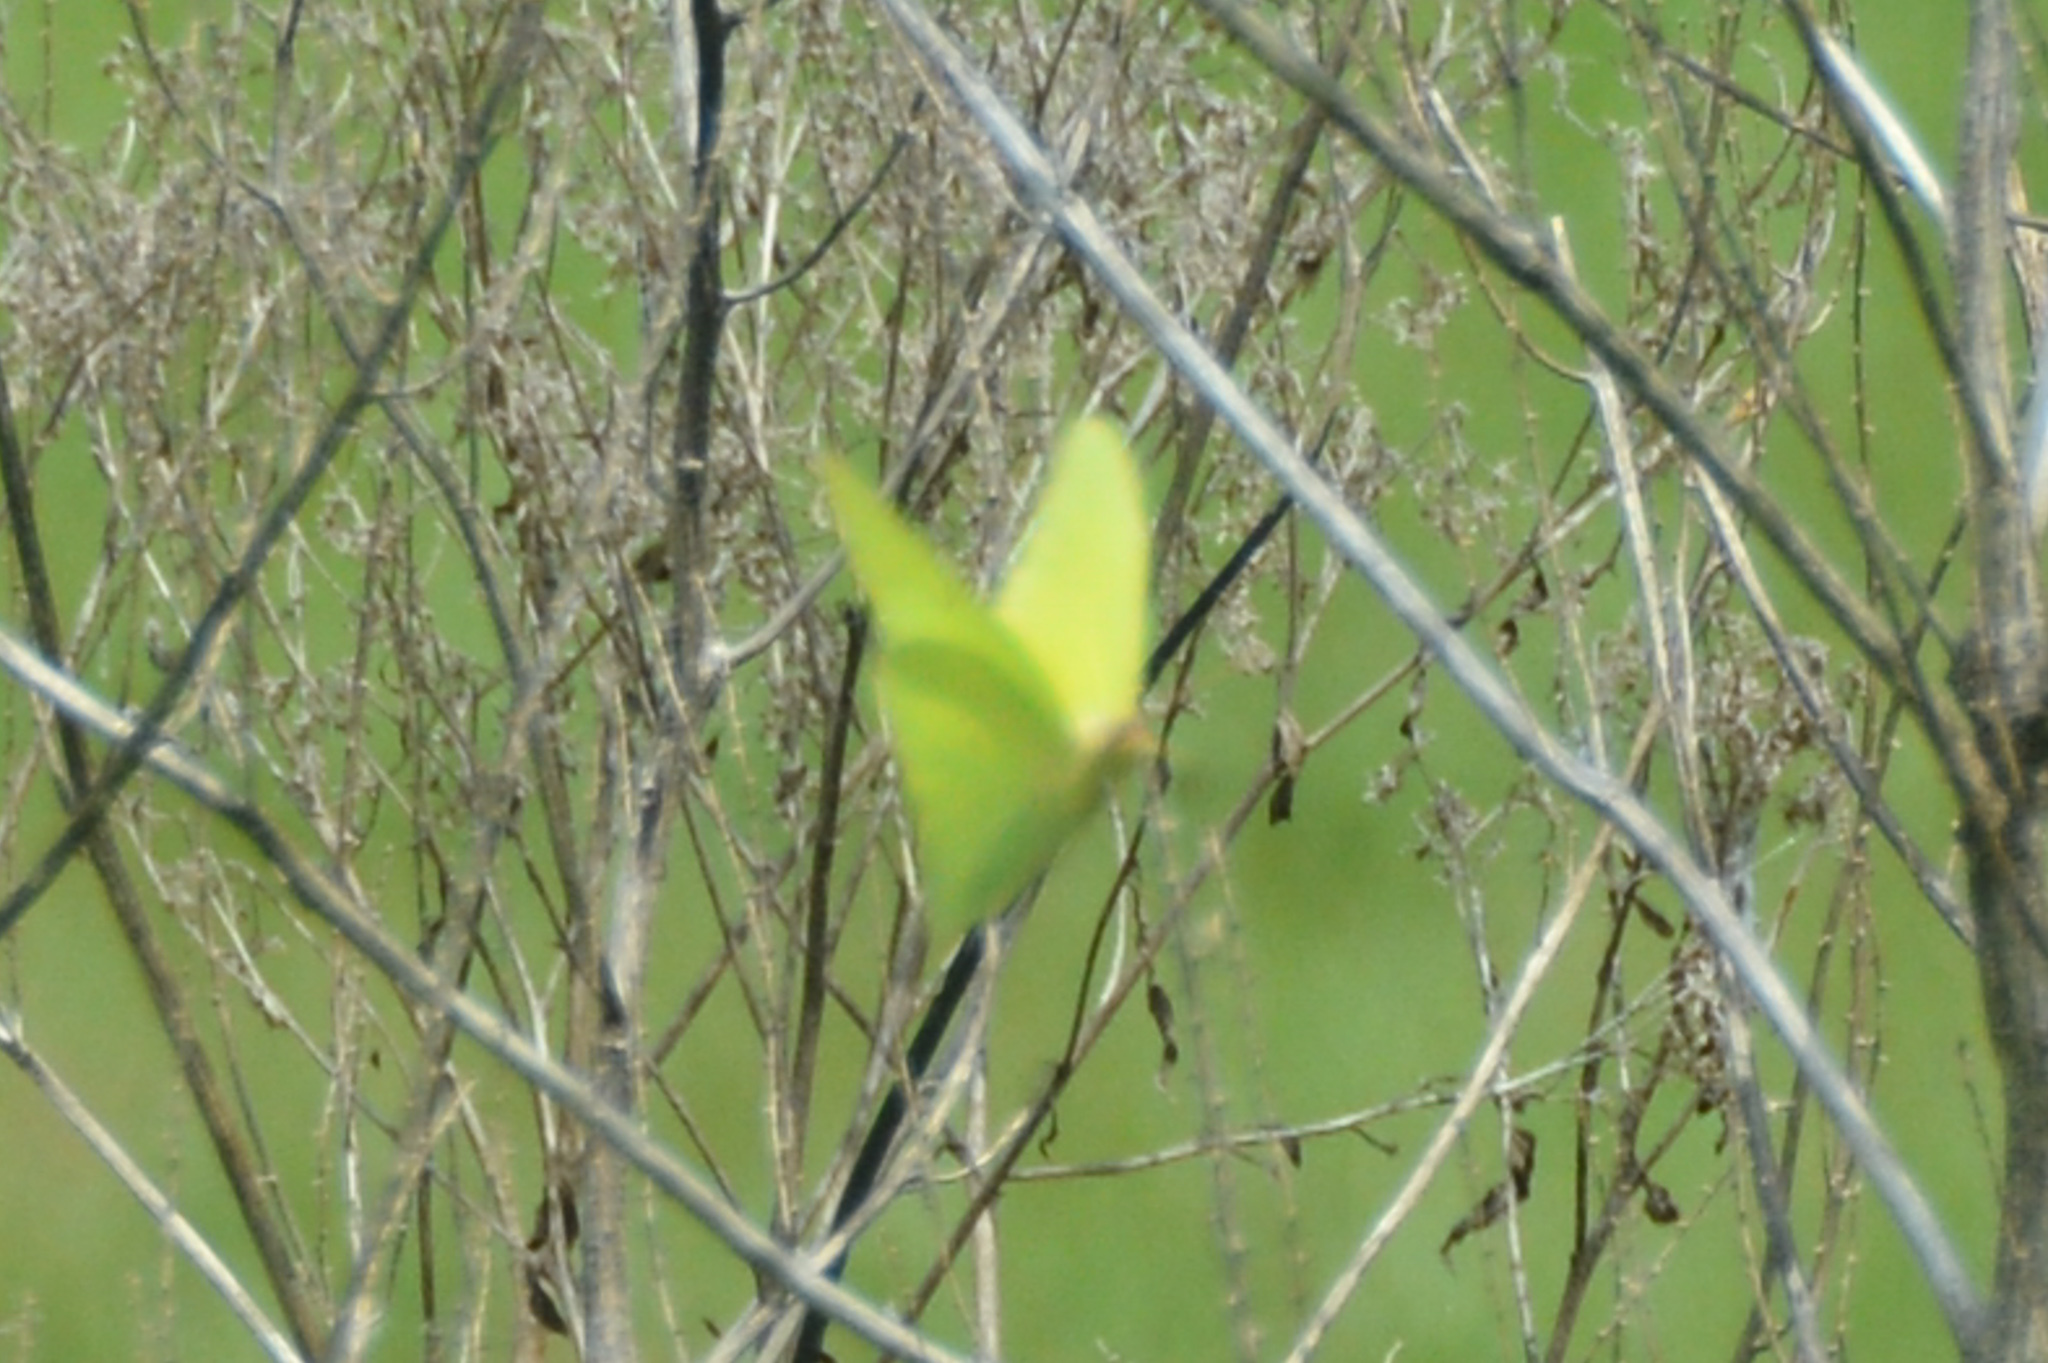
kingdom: Animalia
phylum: Arthropoda
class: Insecta
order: Lepidoptera
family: Pieridae
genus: Phoebis
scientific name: Phoebis sennae
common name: Cloudless sulphur
